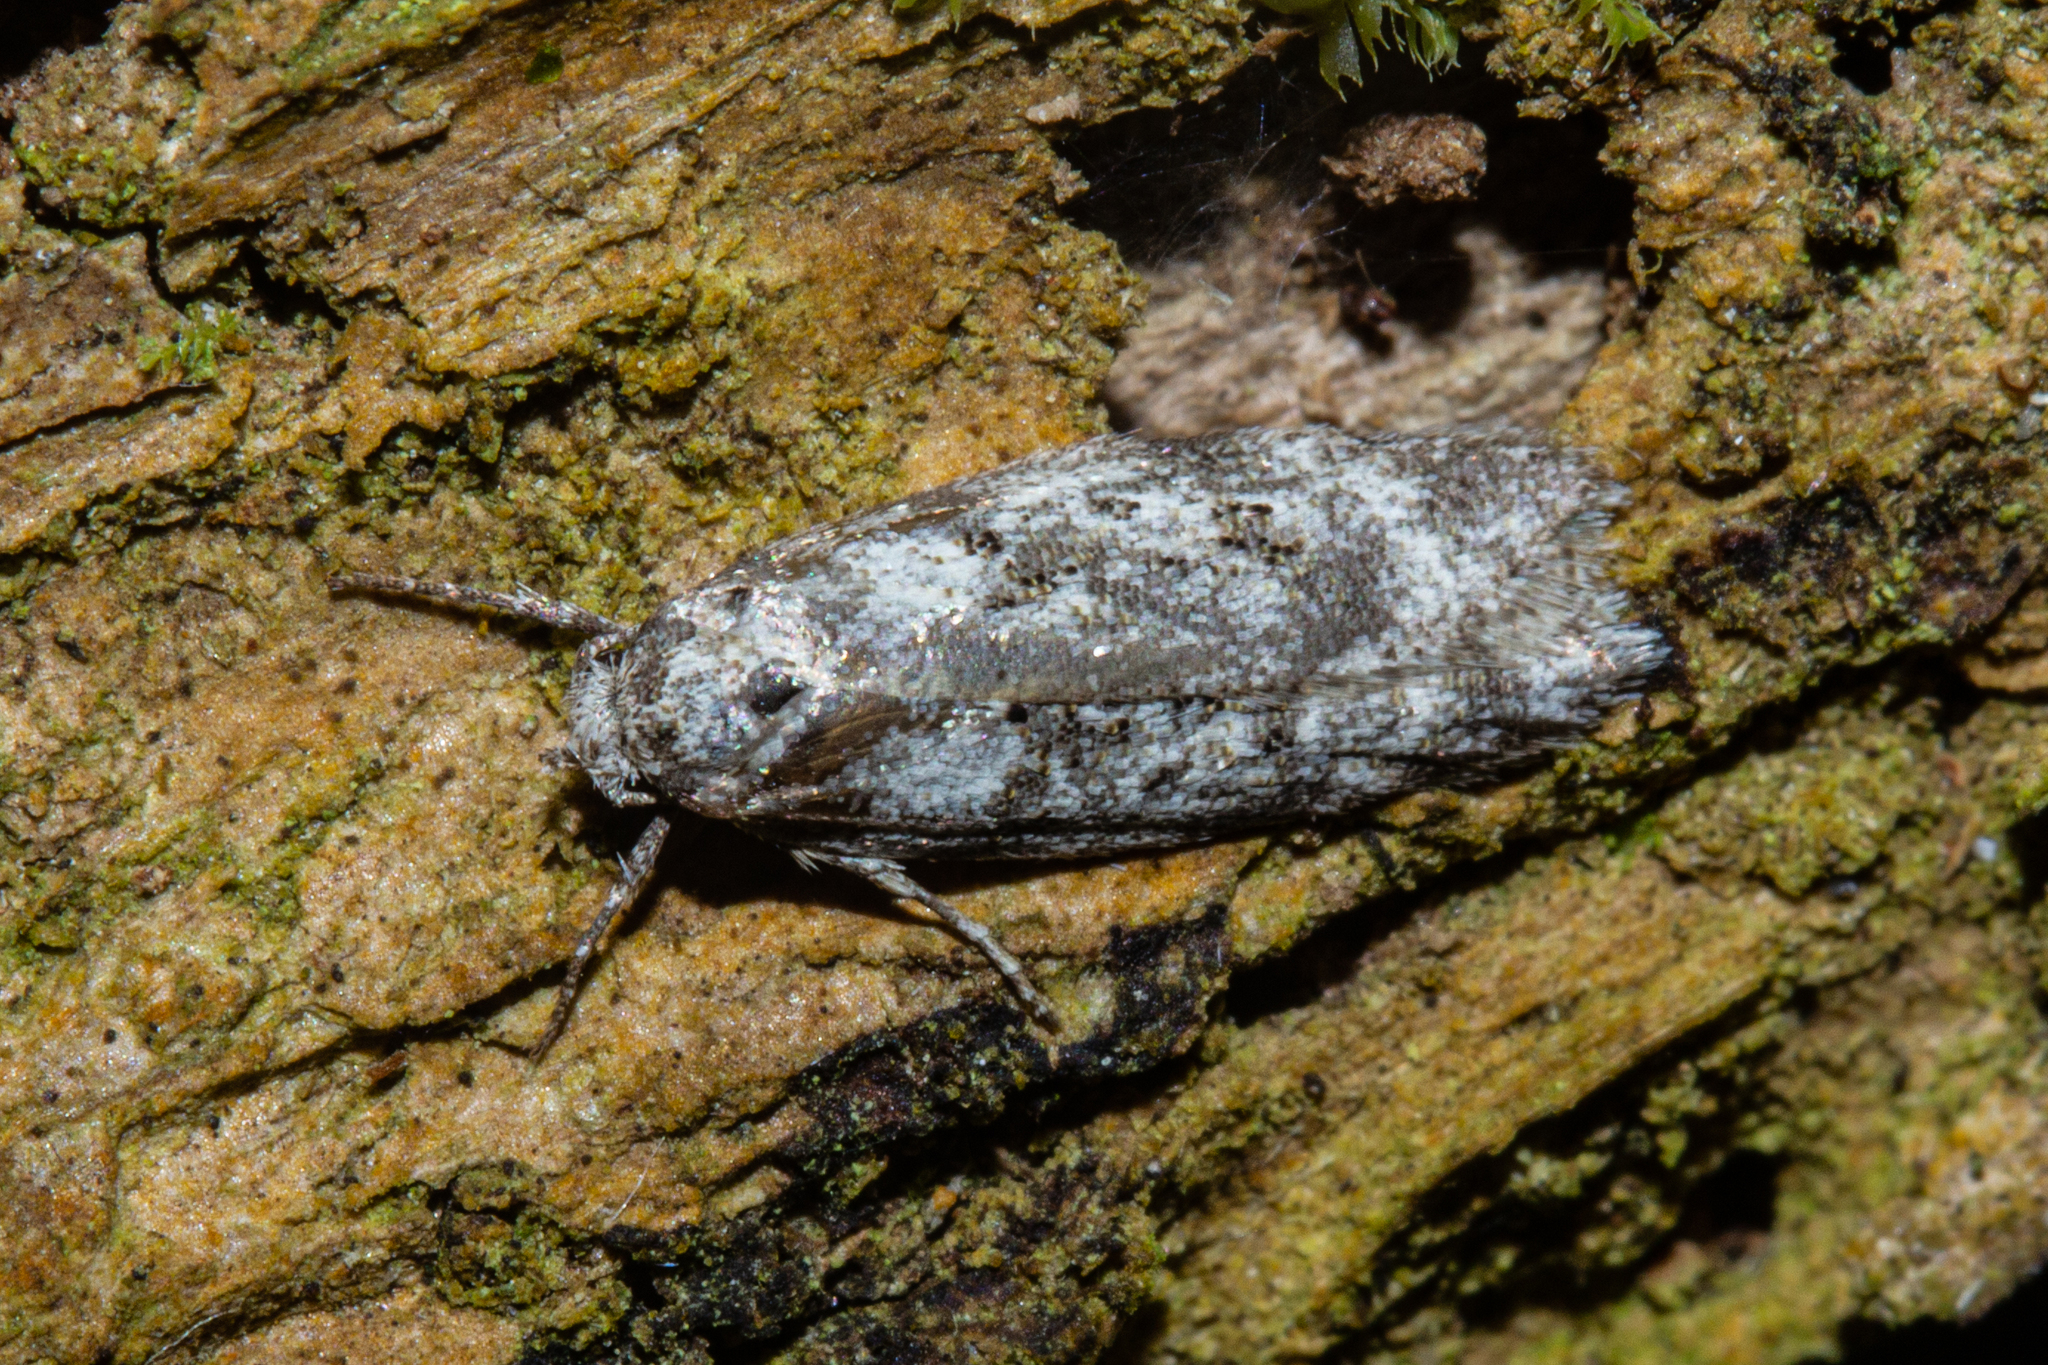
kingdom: Animalia
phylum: Arthropoda
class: Insecta
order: Lepidoptera
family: Oecophoridae
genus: Izatha
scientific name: Izatha convulsella
